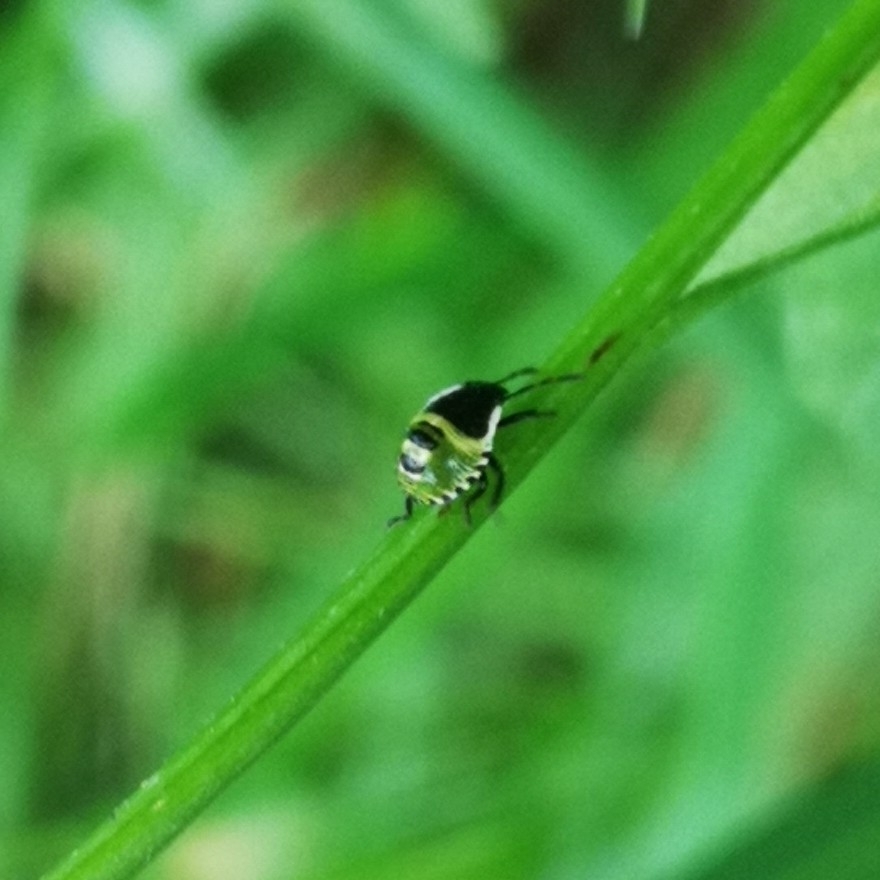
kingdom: Animalia
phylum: Arthropoda
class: Insecta
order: Hemiptera
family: Pentatomidae
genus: Palomena
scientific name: Palomena prasina
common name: Green shieldbug
